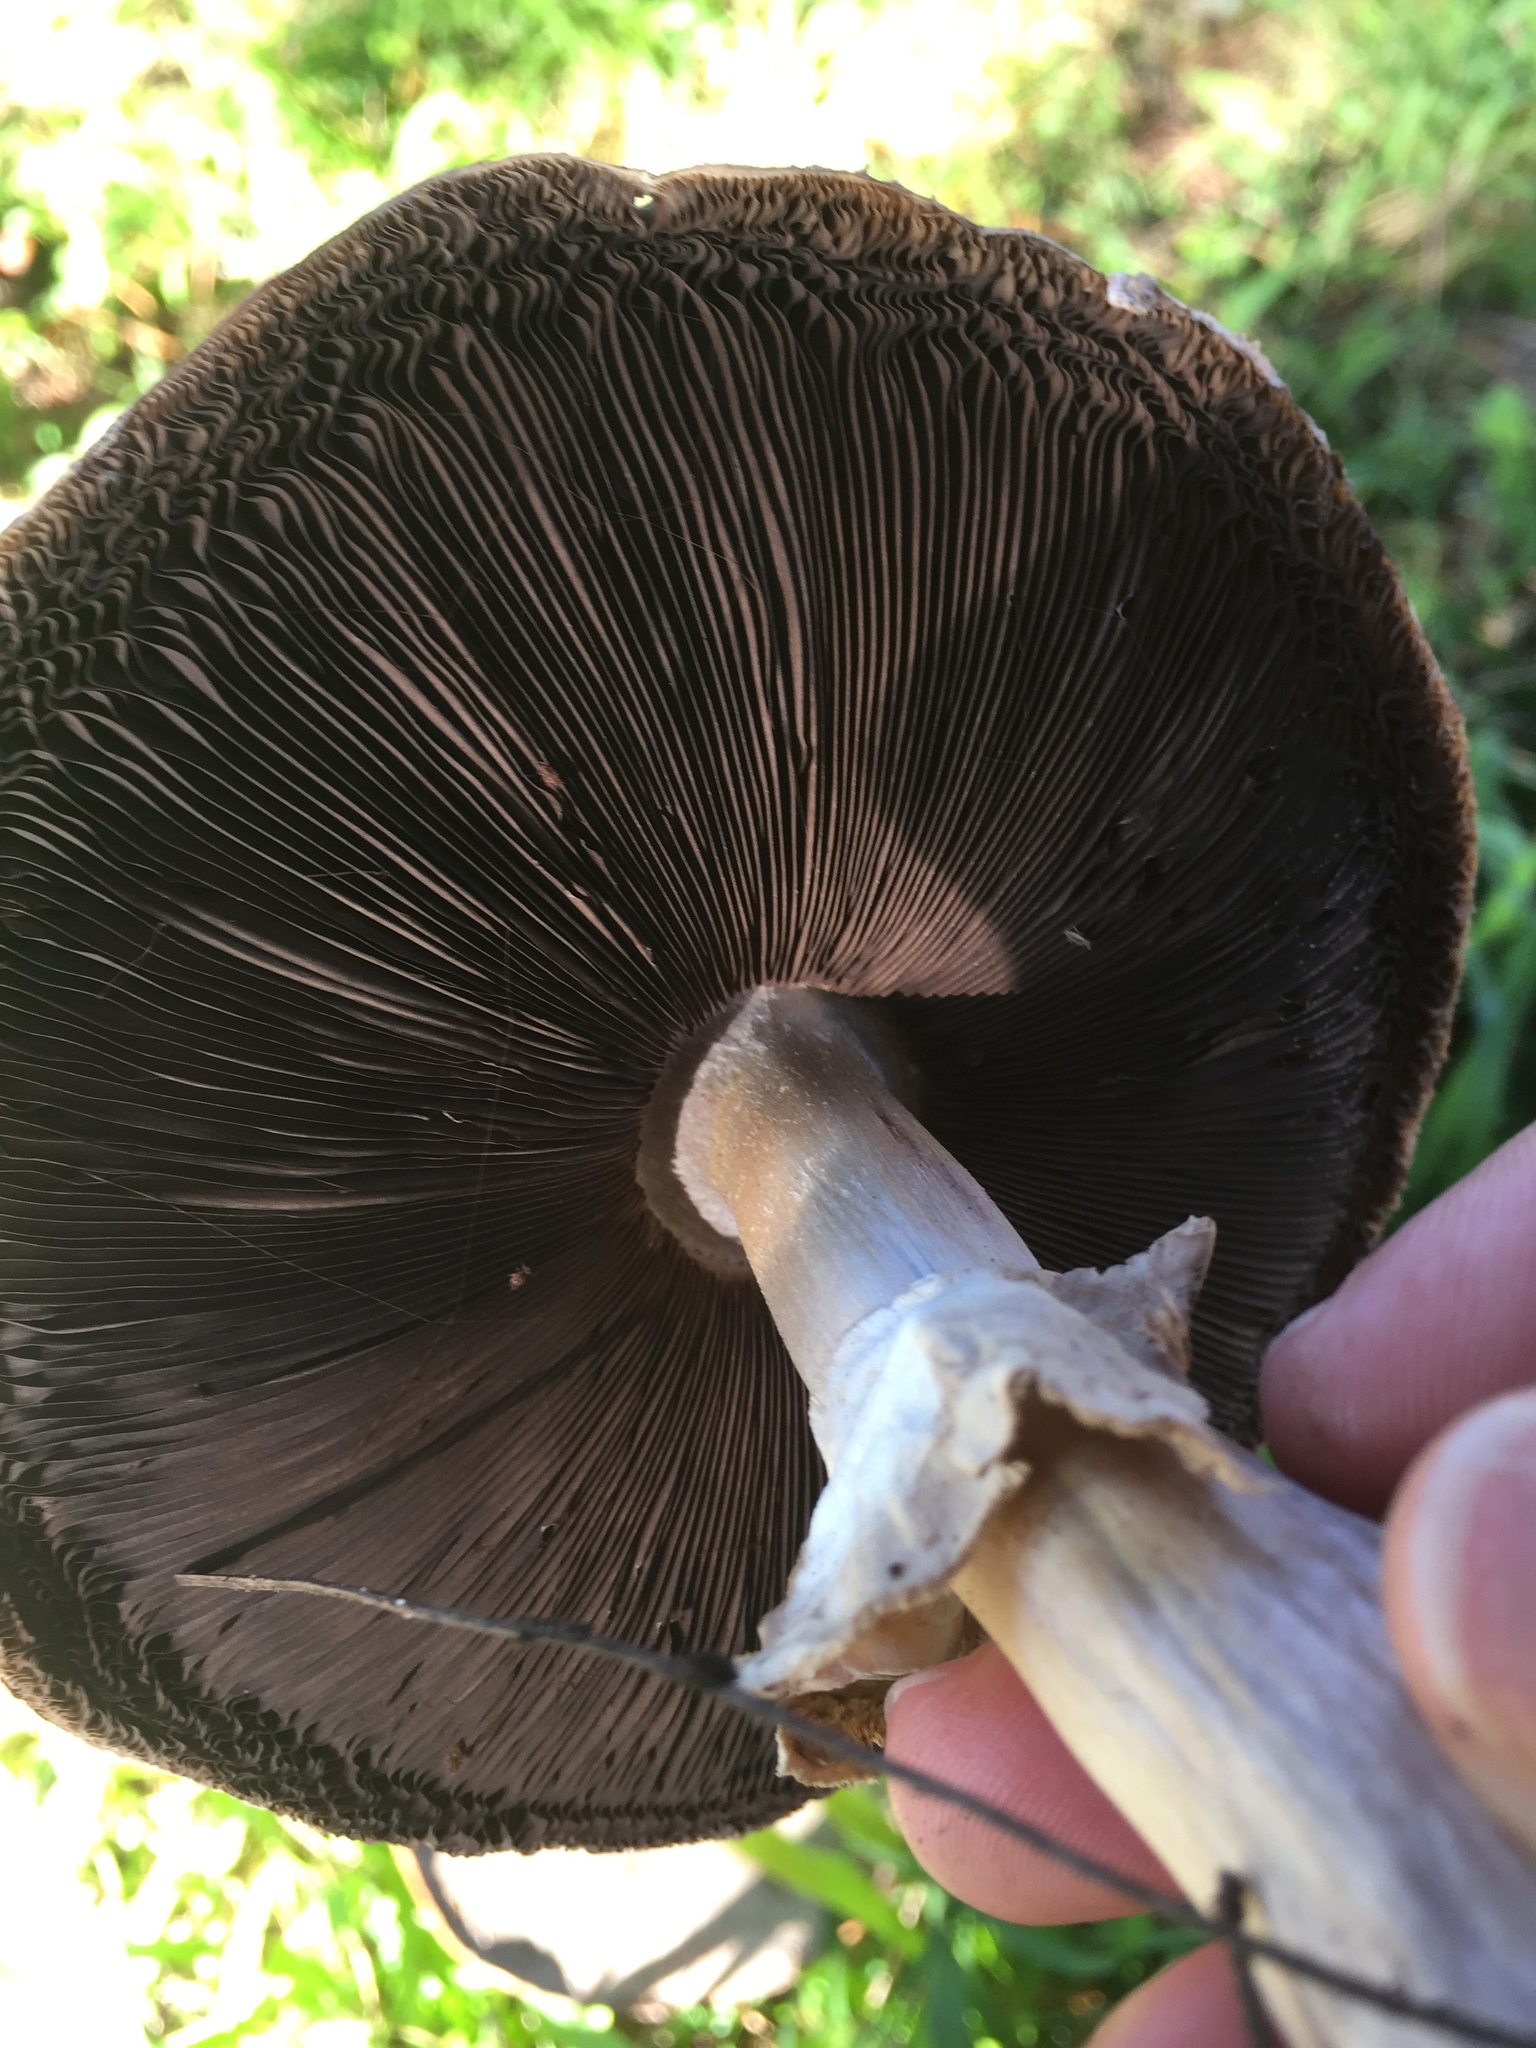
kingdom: Fungi
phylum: Basidiomycota
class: Agaricomycetes
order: Agaricales
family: Agaricaceae
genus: Agaricus
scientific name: Agaricus xanthodermus
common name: Yellow stainer
